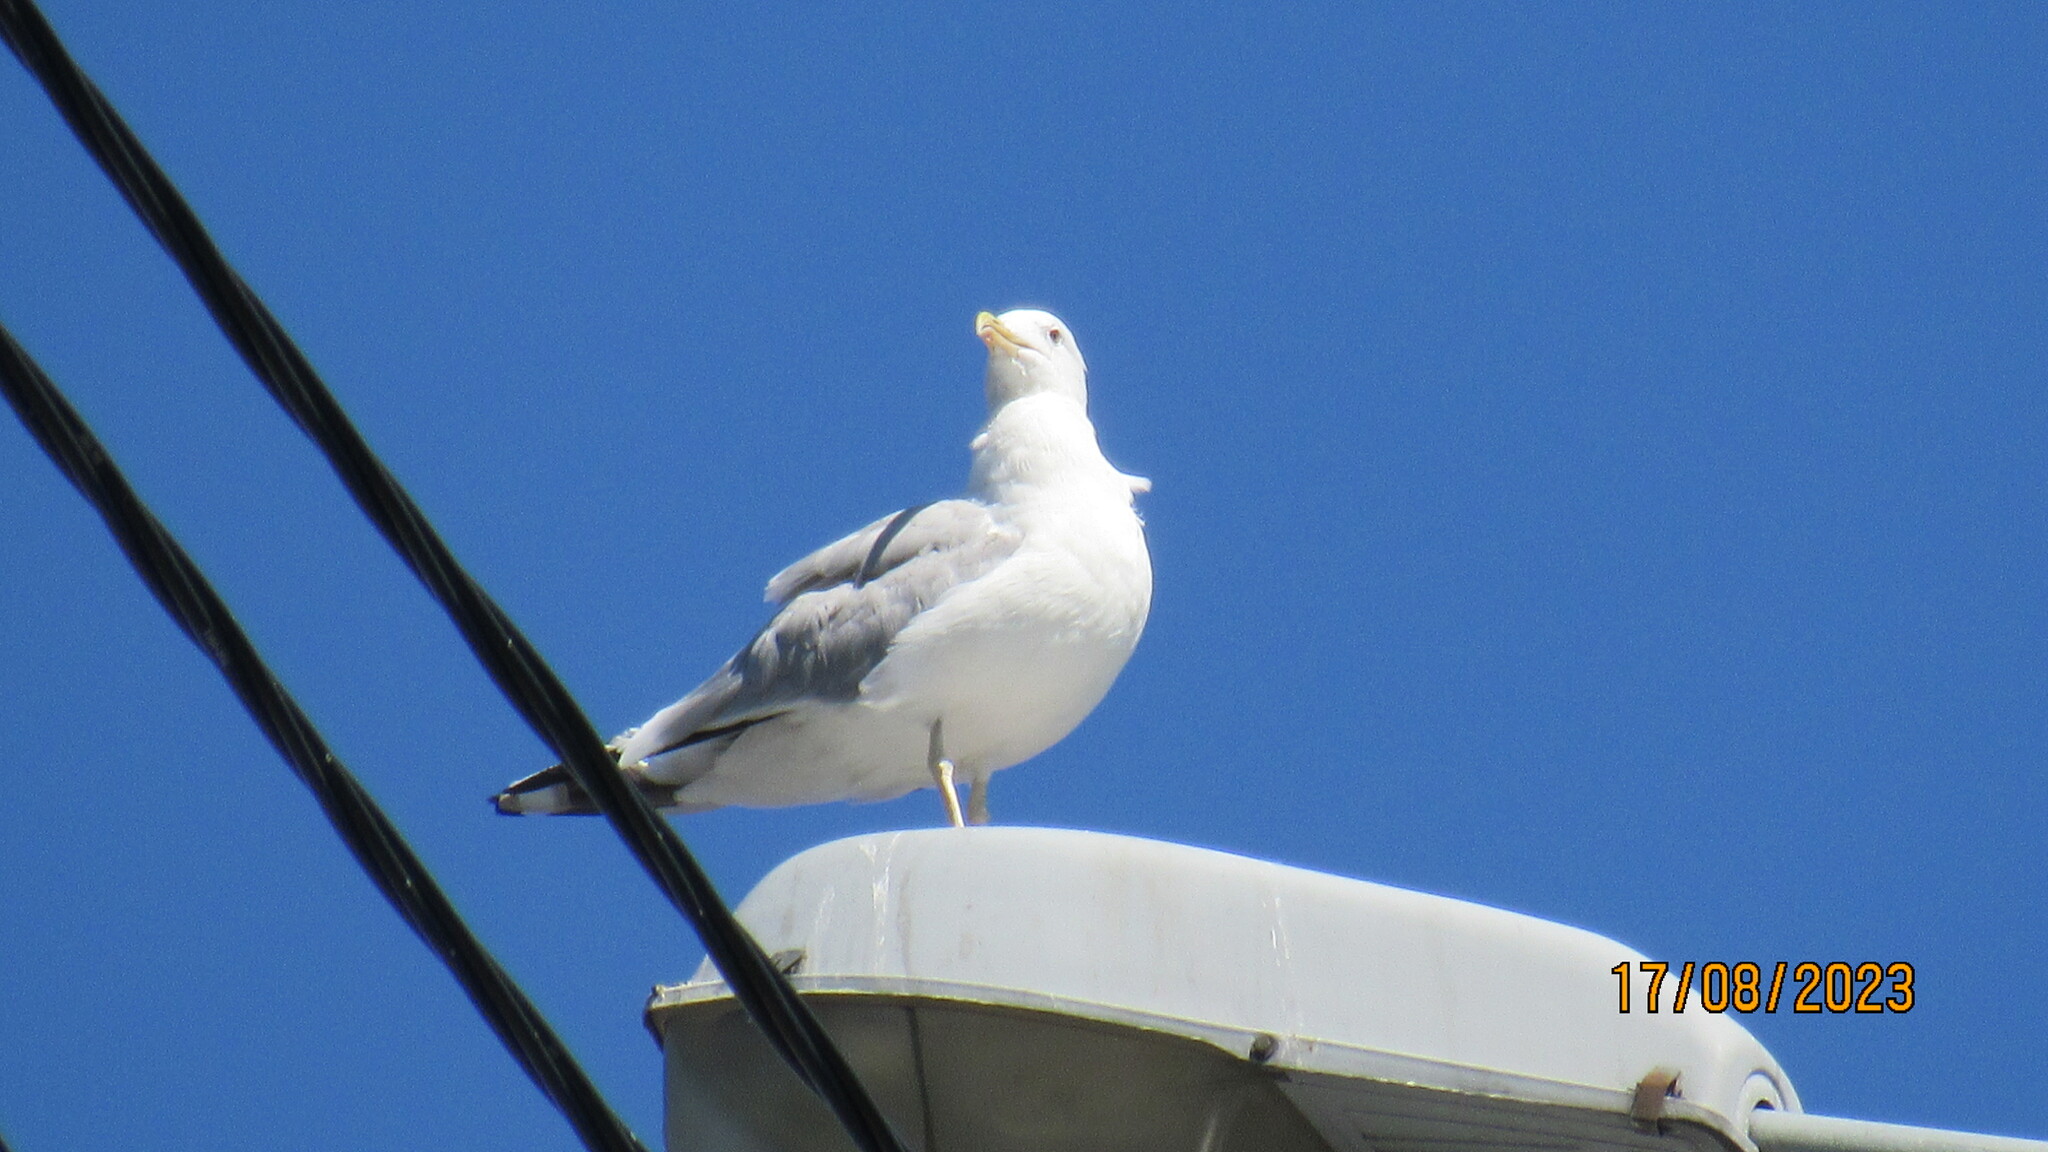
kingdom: Animalia
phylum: Chordata
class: Aves
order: Charadriiformes
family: Laridae
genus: Larus
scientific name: Larus argentatus
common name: Herring gull
